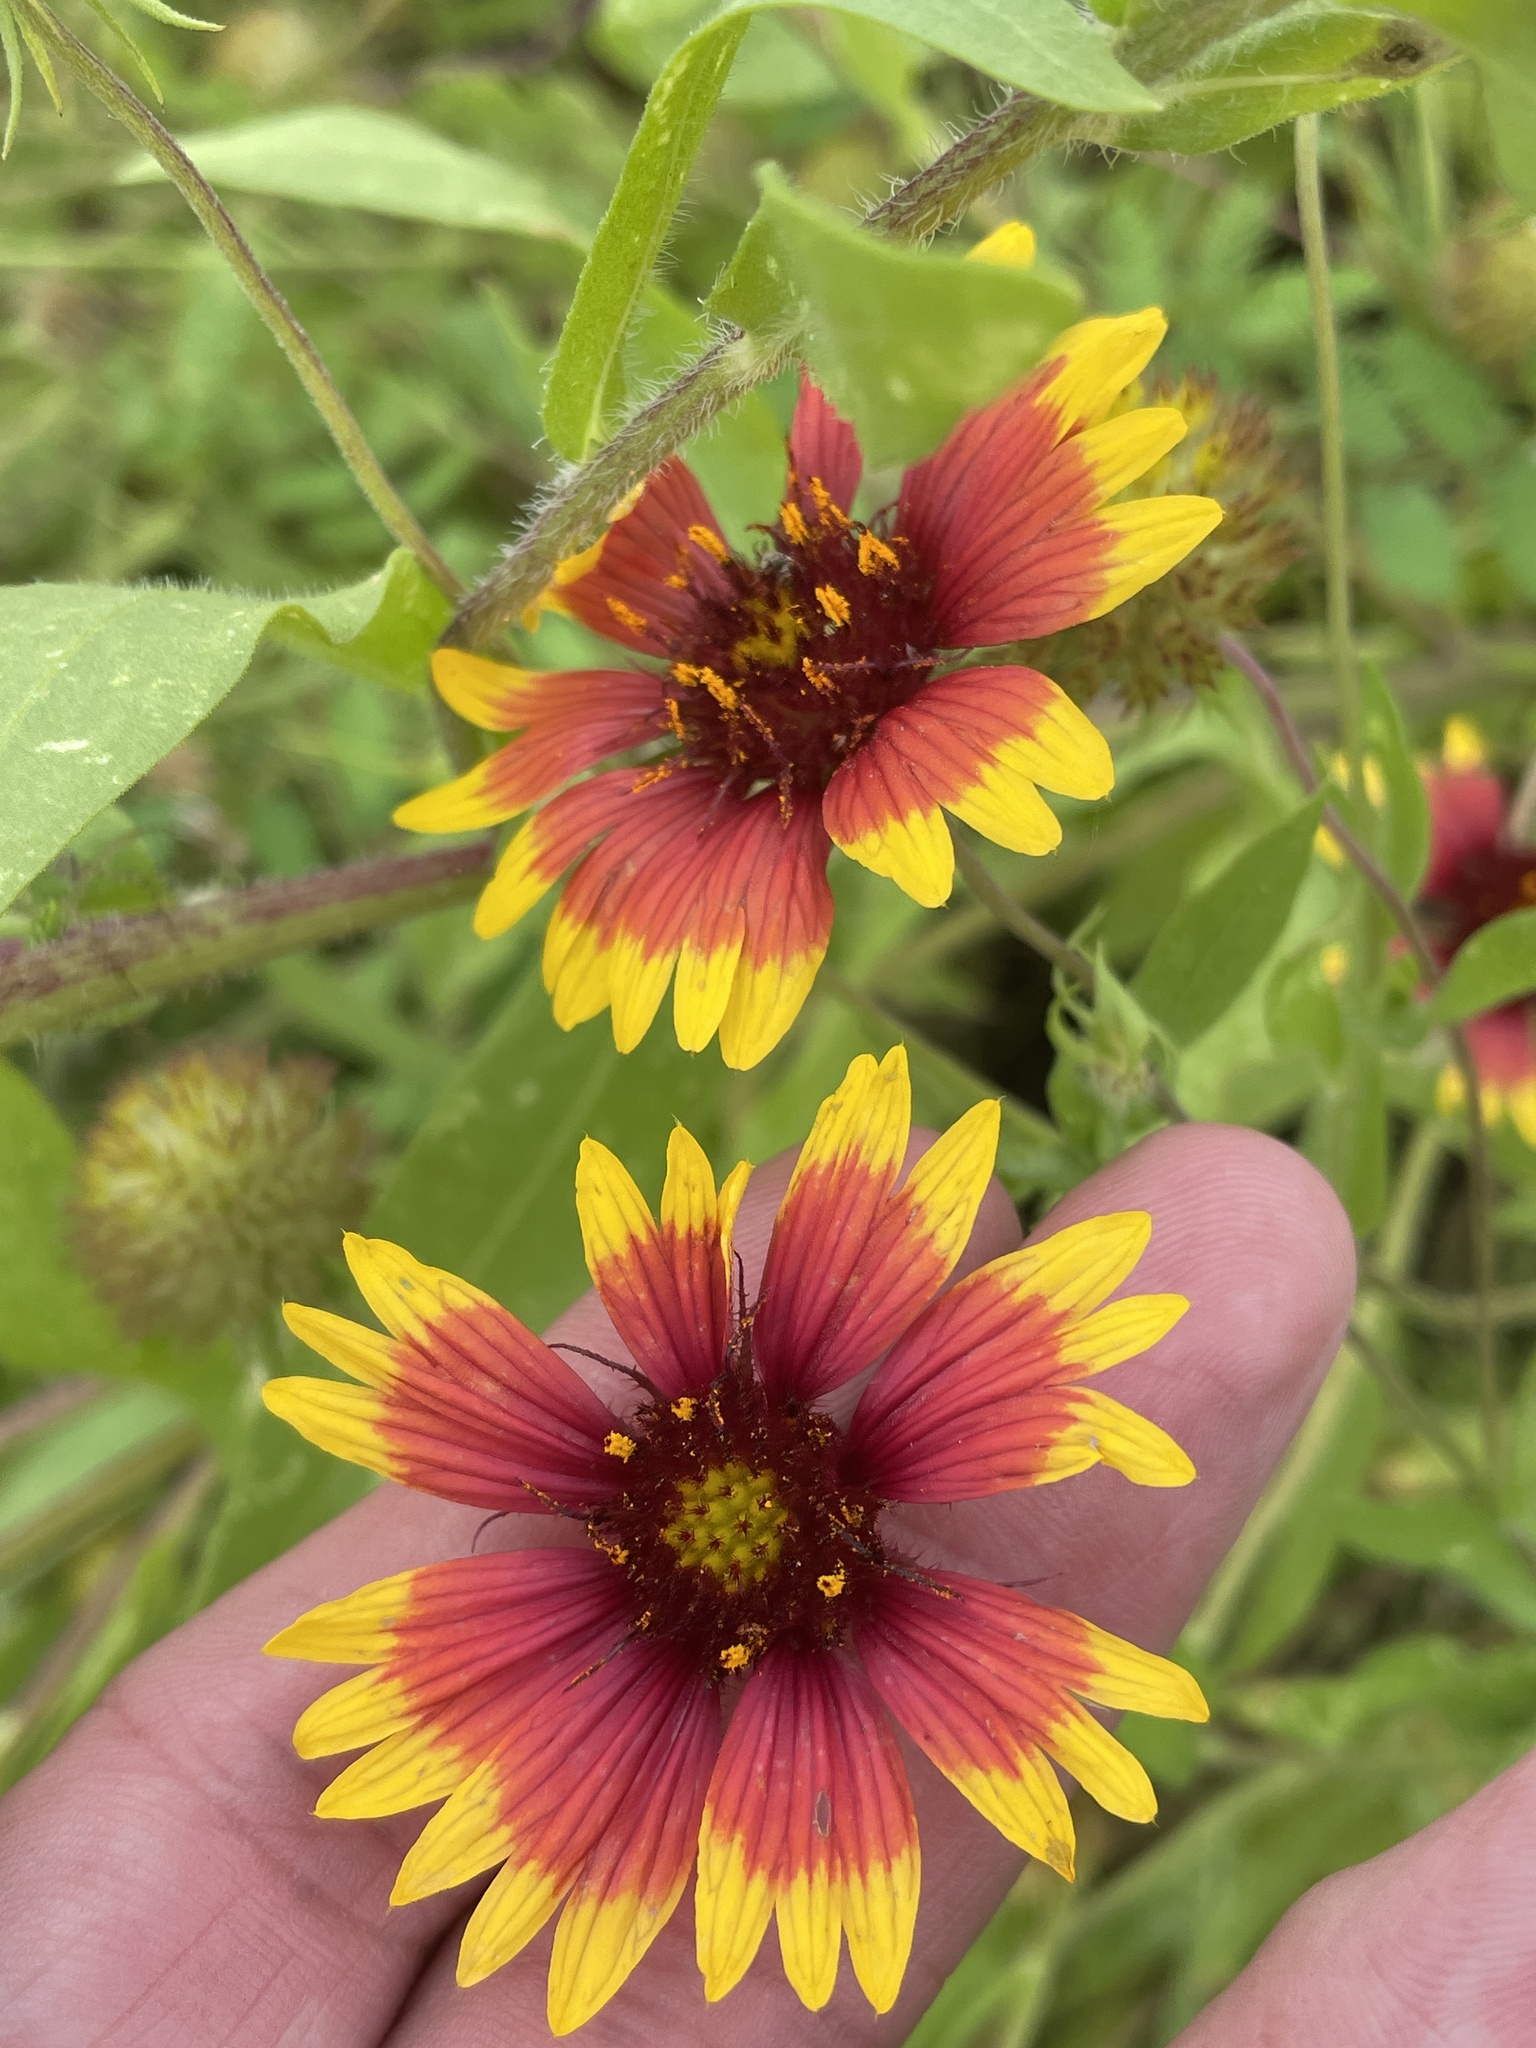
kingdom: Plantae
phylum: Tracheophyta
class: Magnoliopsida
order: Asterales
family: Asteraceae
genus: Gaillardia
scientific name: Gaillardia pulchella
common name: Firewheel
